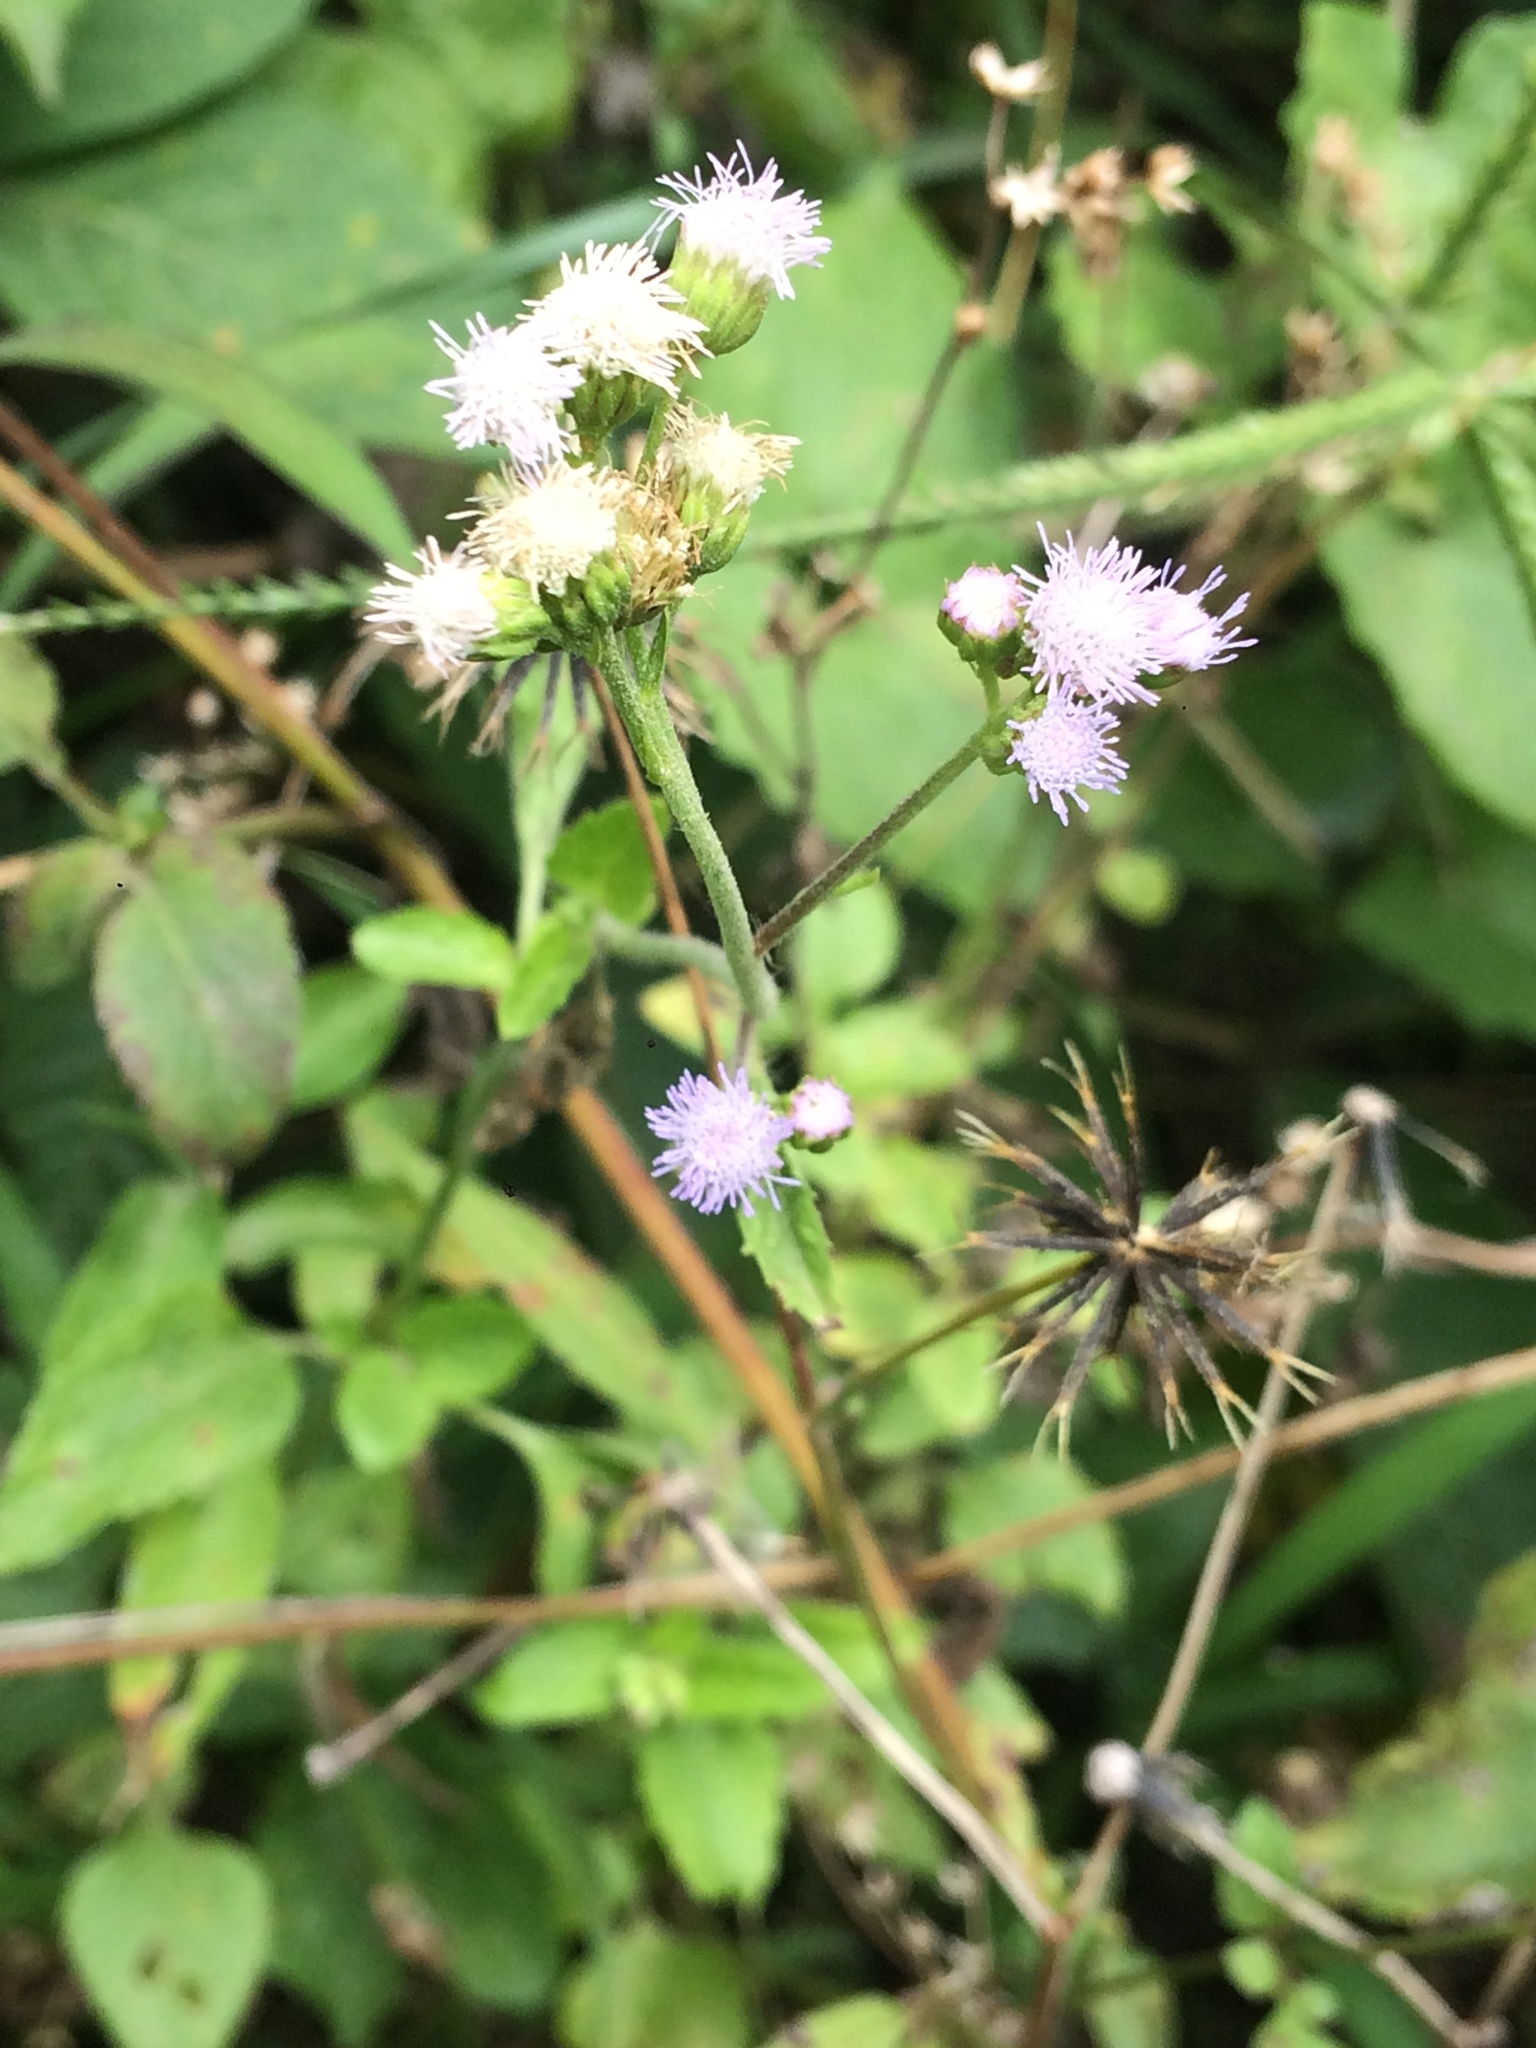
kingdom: Plantae
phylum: Tracheophyta
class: Magnoliopsida
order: Asterales
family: Asteraceae
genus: Ageratum
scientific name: Ageratum conyzoides
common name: Tropical whiteweed
